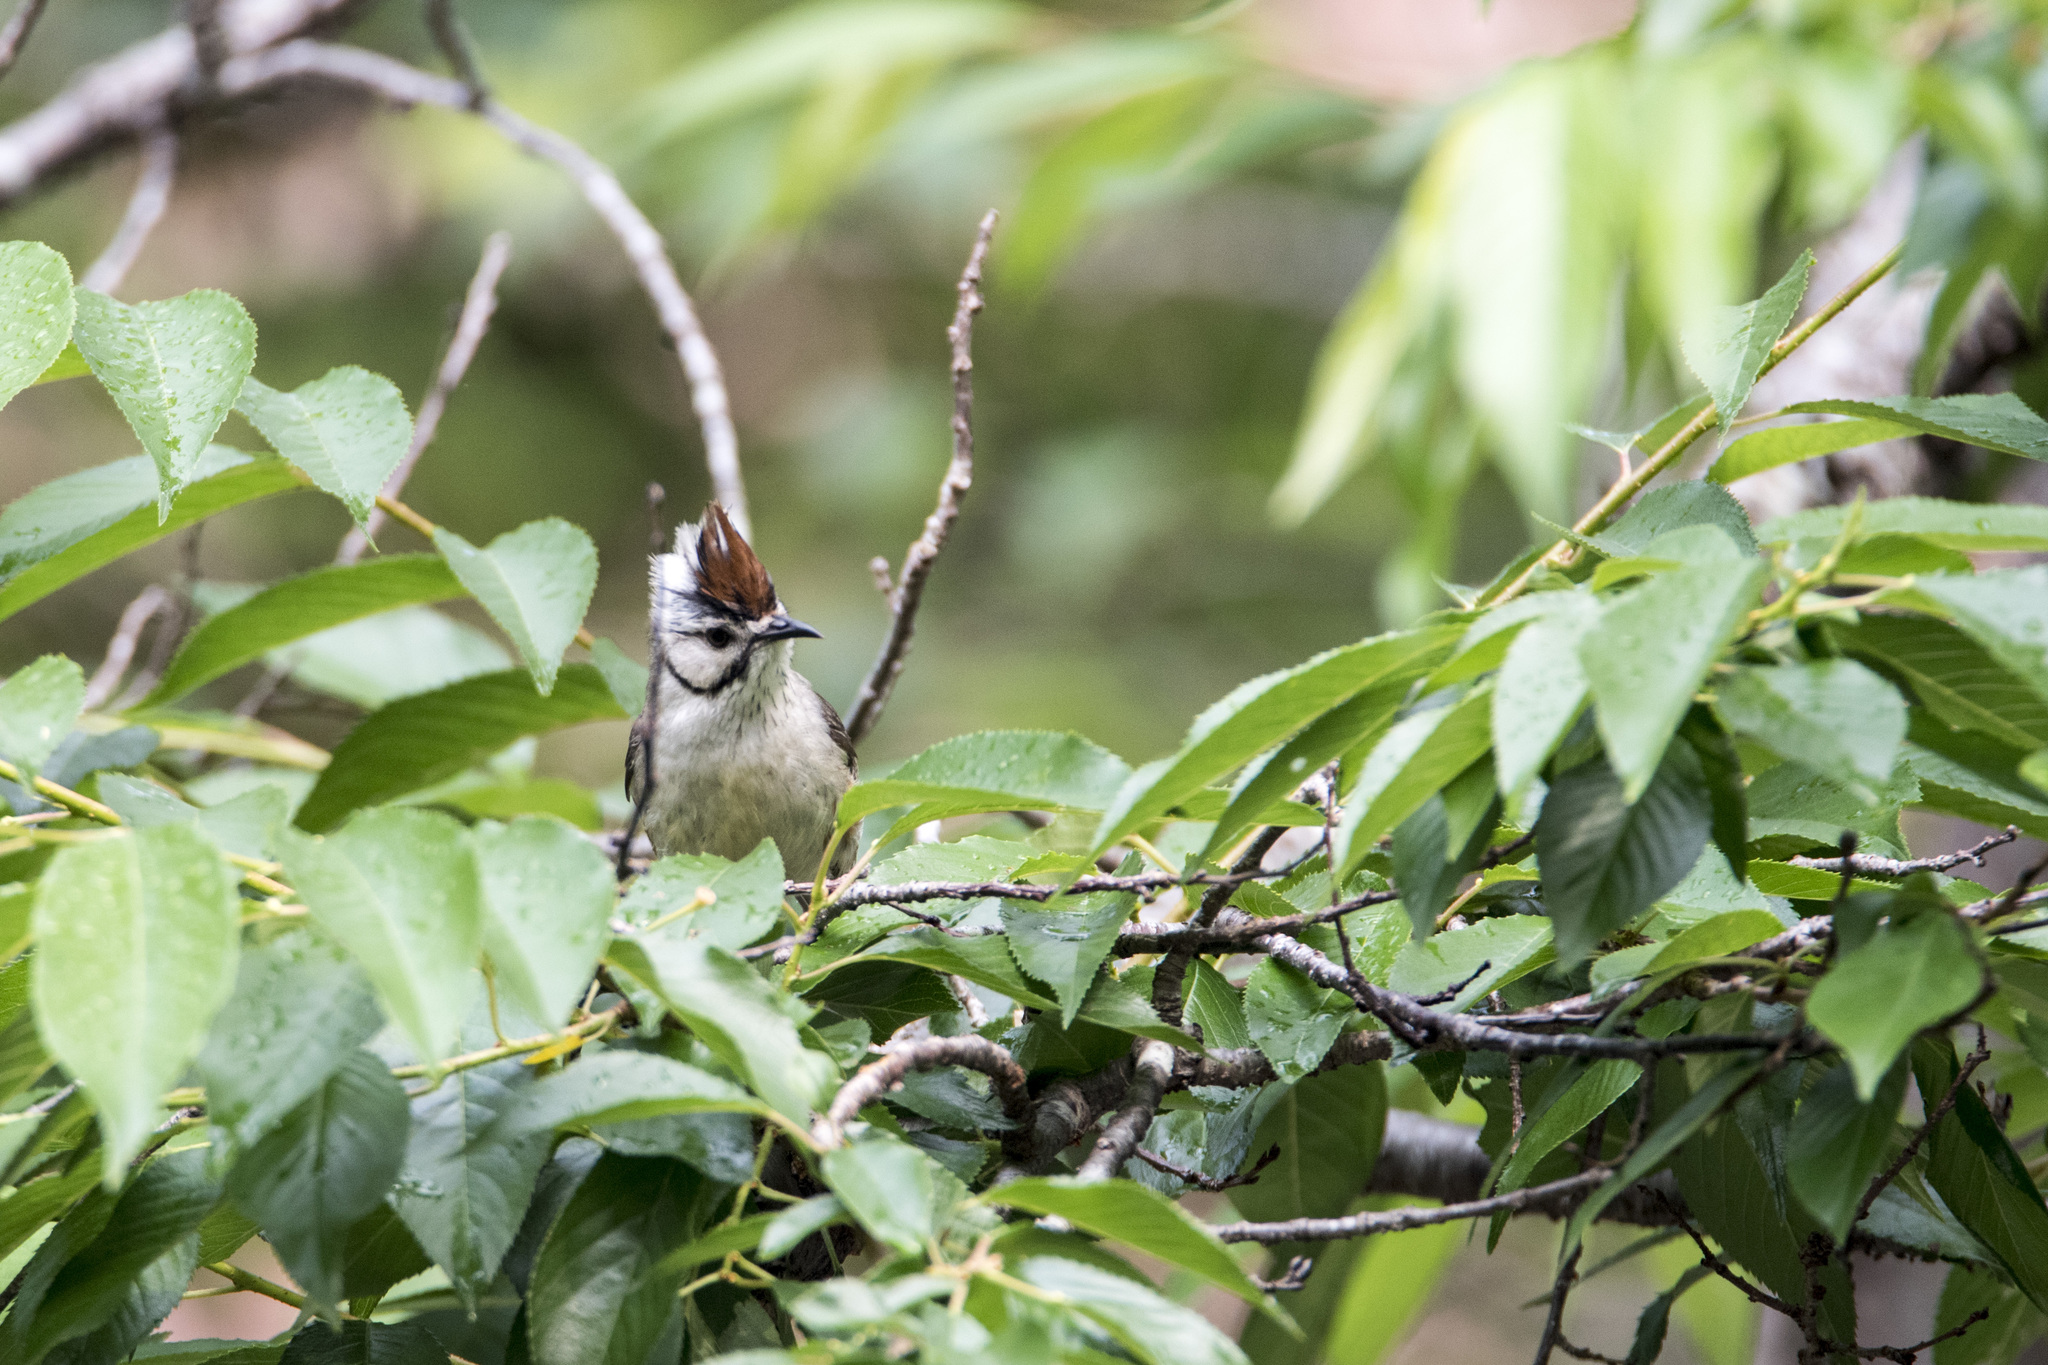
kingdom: Animalia
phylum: Chordata
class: Aves
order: Passeriformes
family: Zosteropidae
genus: Yuhina
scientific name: Yuhina brunneiceps
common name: Taiwan yuhina
